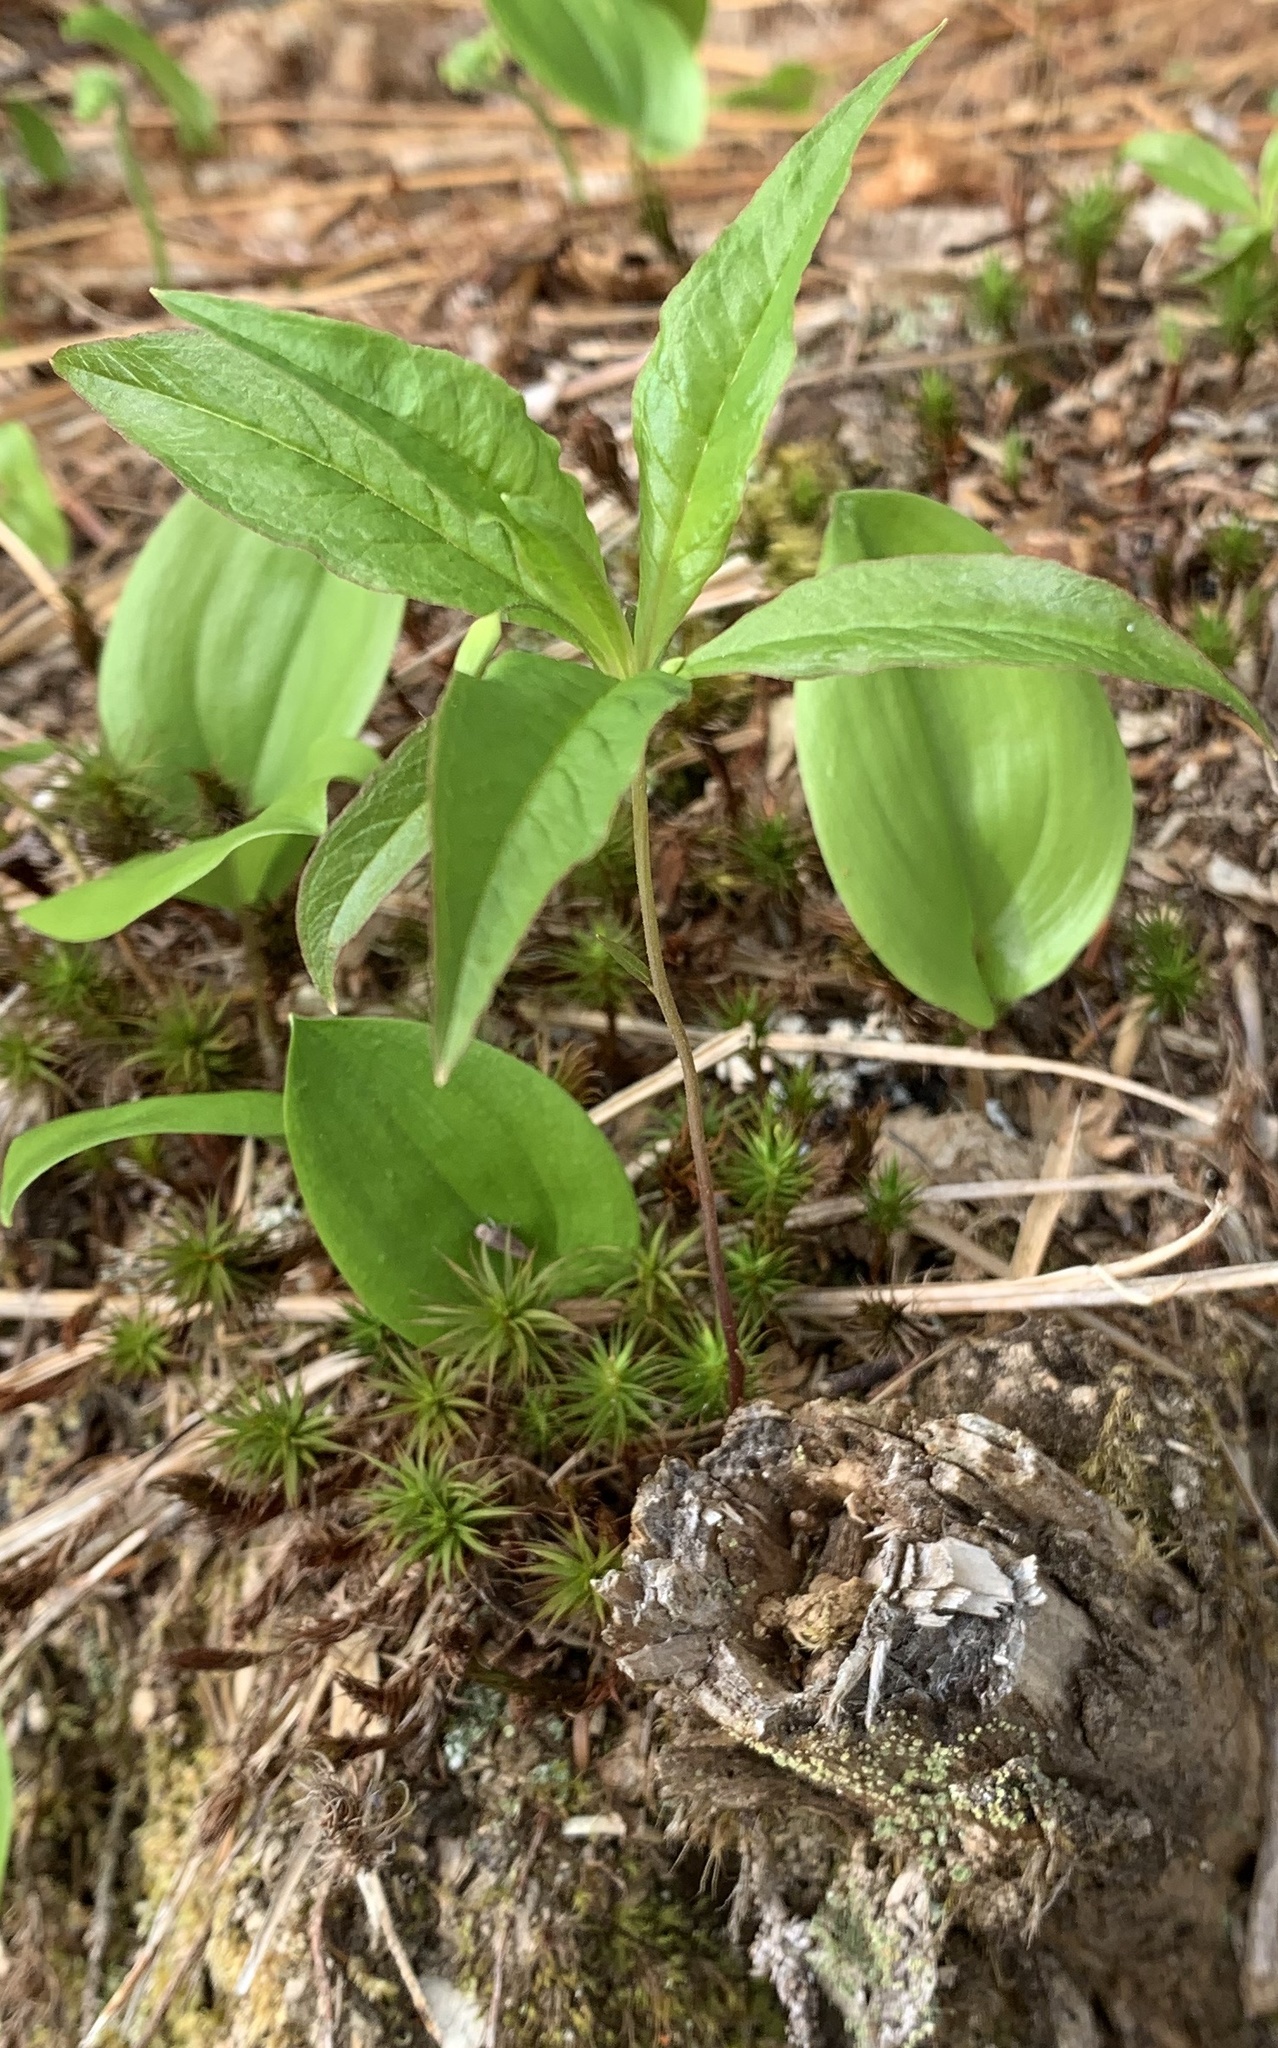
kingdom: Plantae
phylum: Tracheophyta
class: Magnoliopsida
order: Ericales
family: Primulaceae
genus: Lysimachia
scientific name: Lysimachia borealis
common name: American starflower
